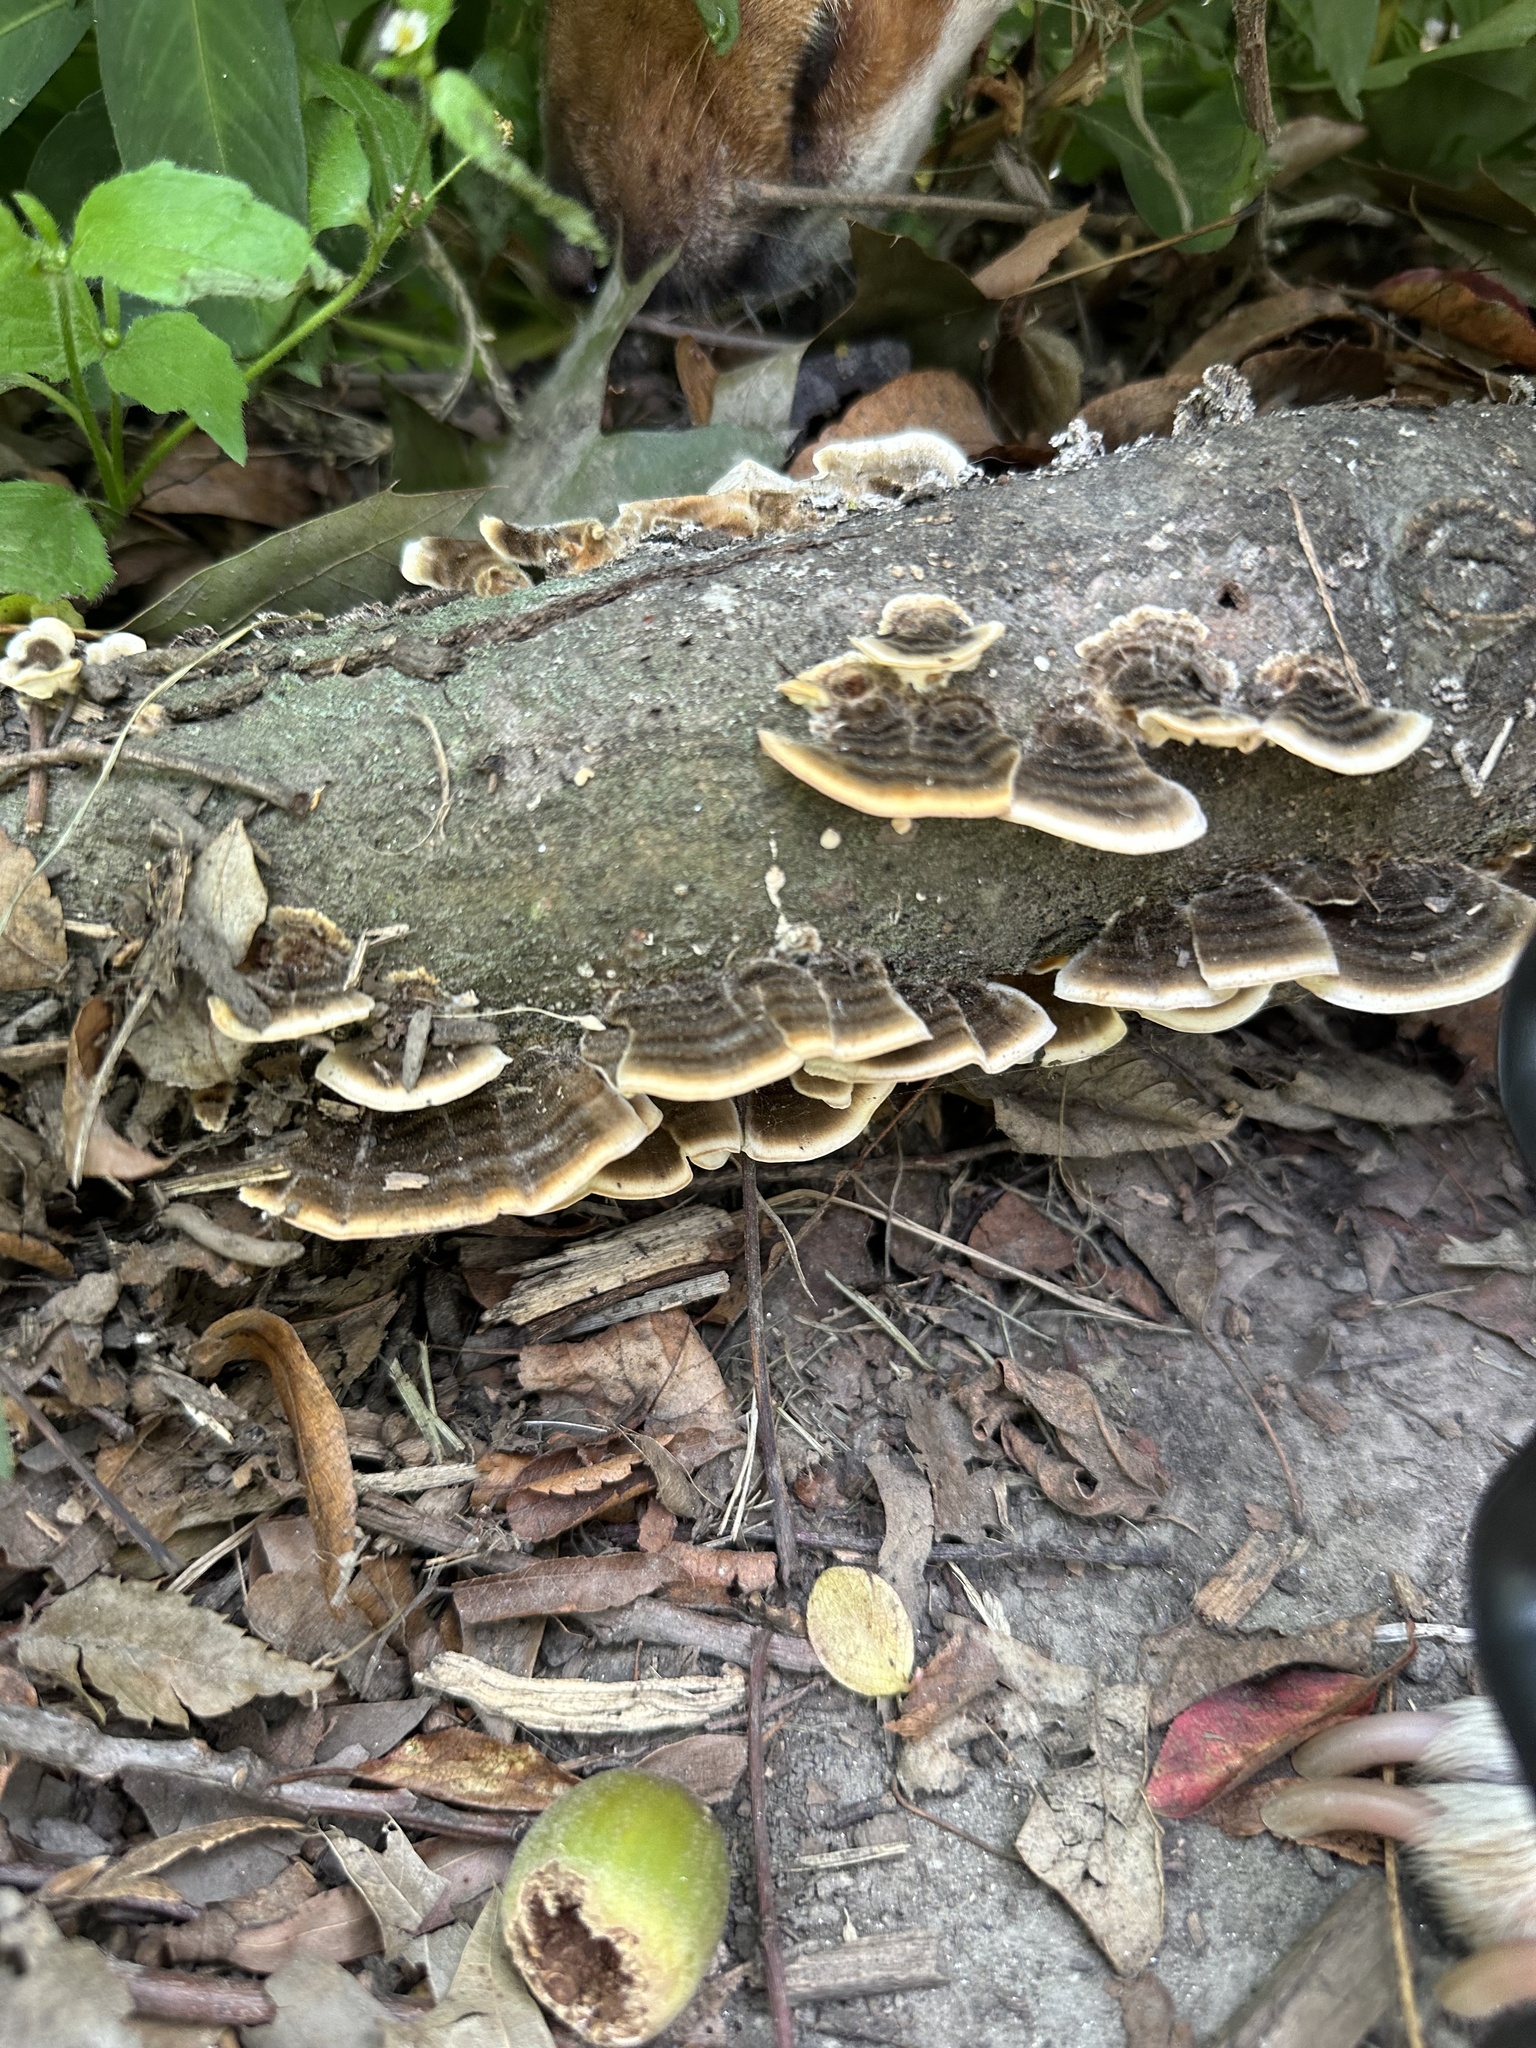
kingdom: Fungi
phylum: Basidiomycota
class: Agaricomycetes
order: Polyporales
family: Polyporaceae
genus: Trametes
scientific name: Trametes versicolor
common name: Turkeytail
